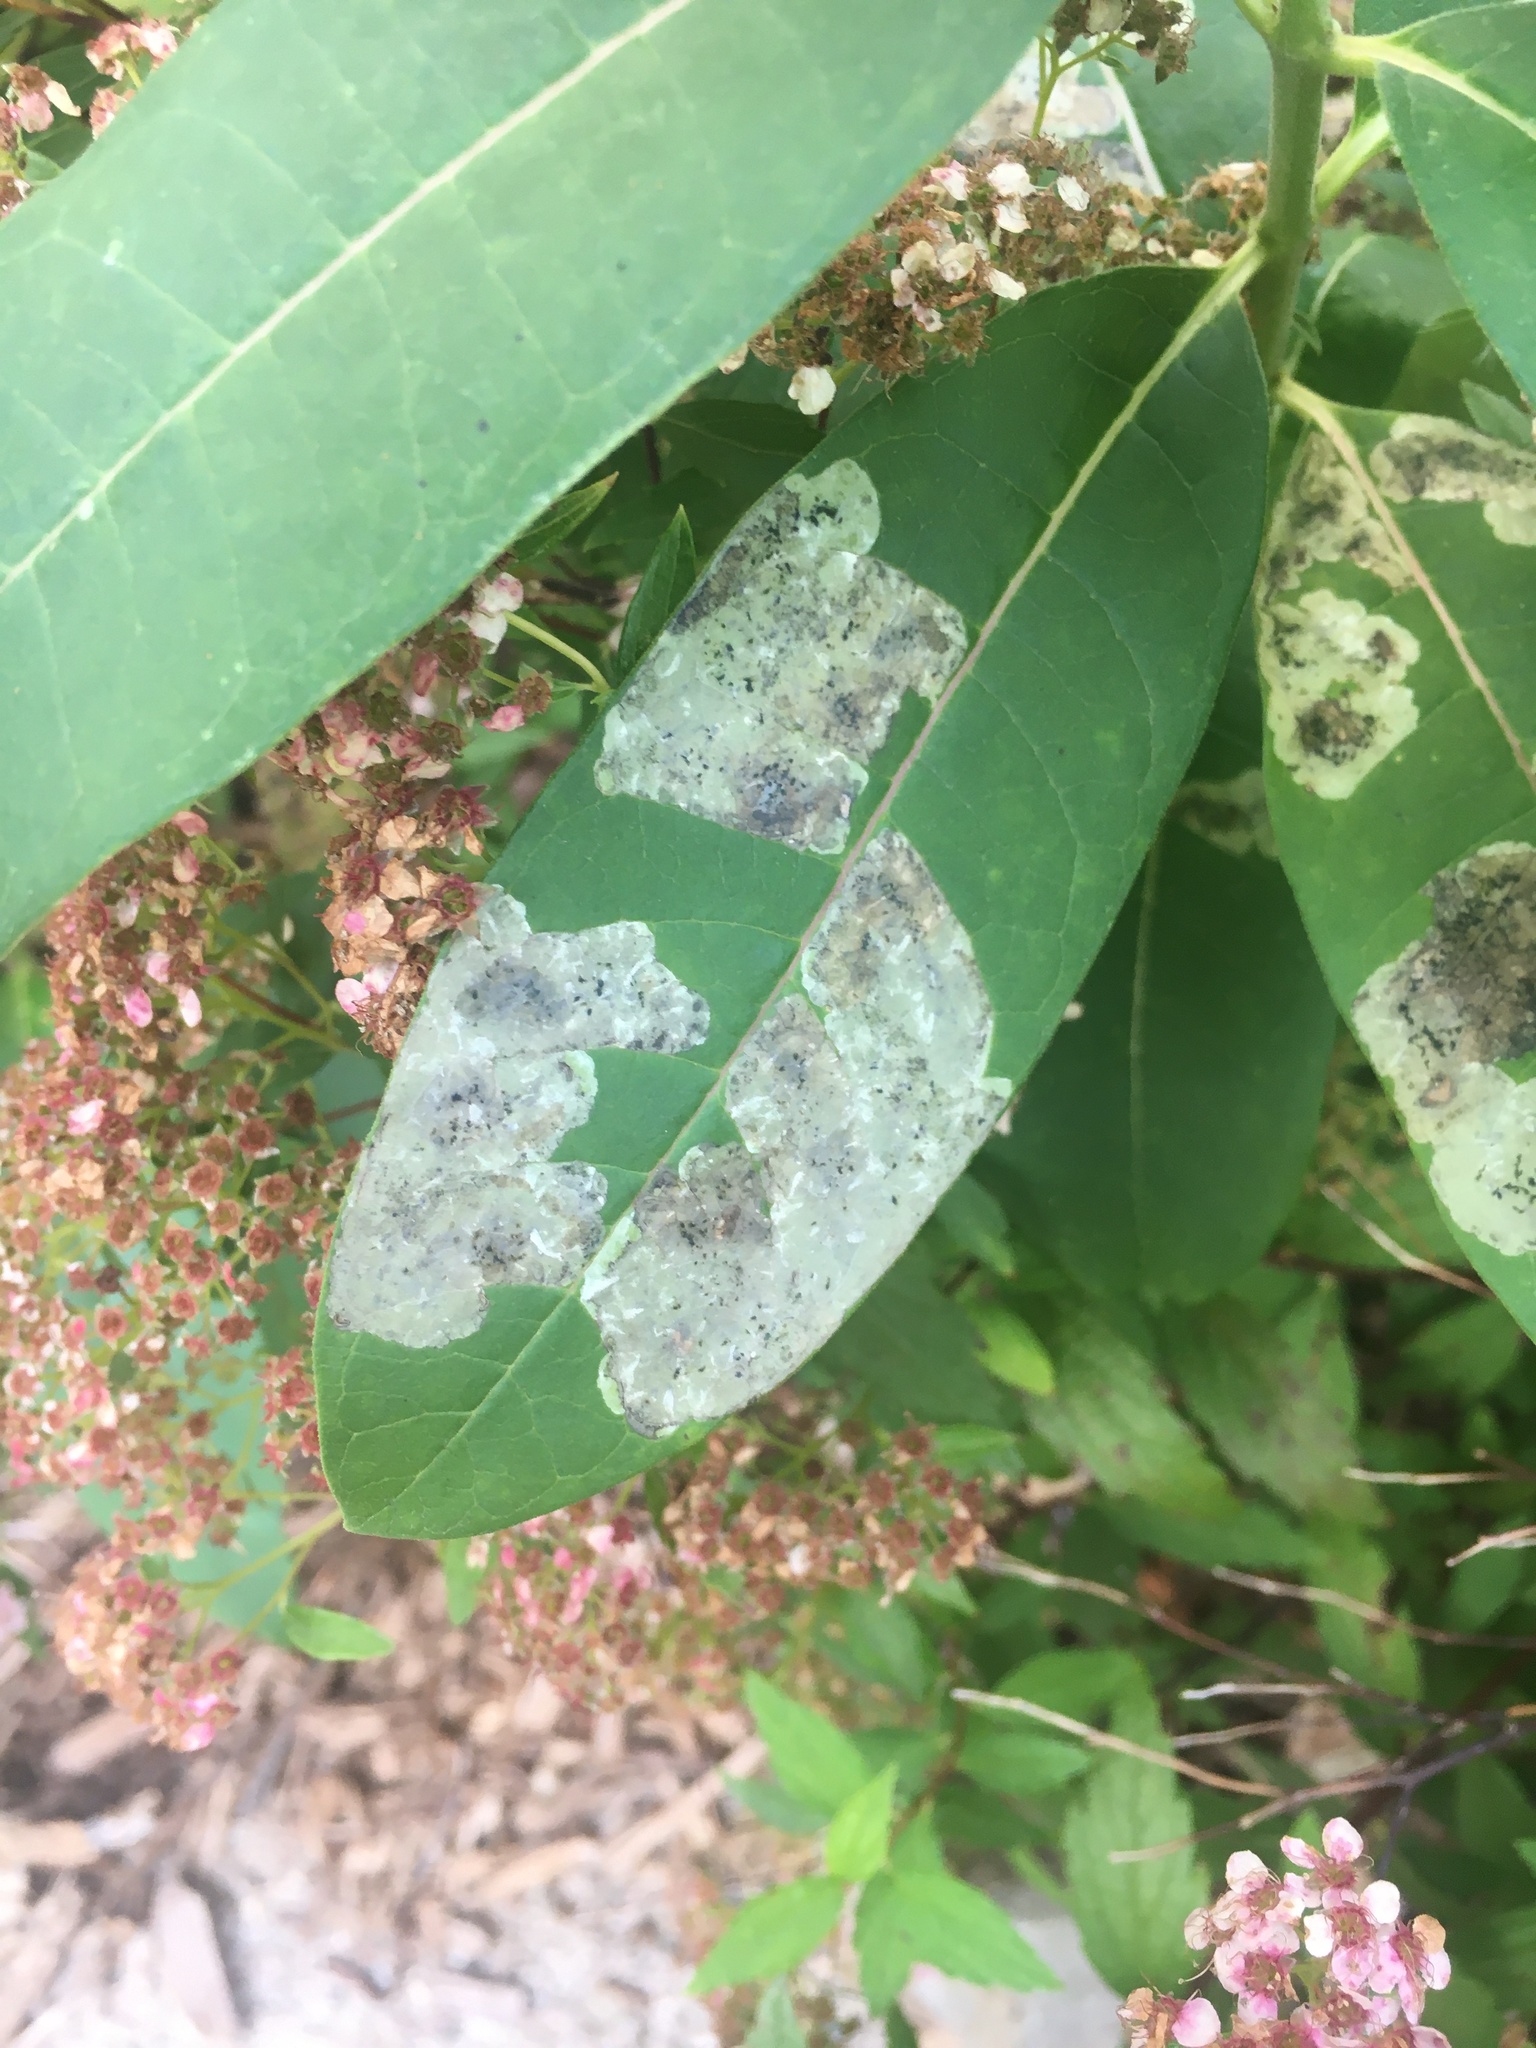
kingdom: Animalia
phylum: Arthropoda
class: Insecta
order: Diptera
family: Agromyzidae
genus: Liriomyza
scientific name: Liriomyza asclepiadis
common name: Milkweed leaf-miner fly
